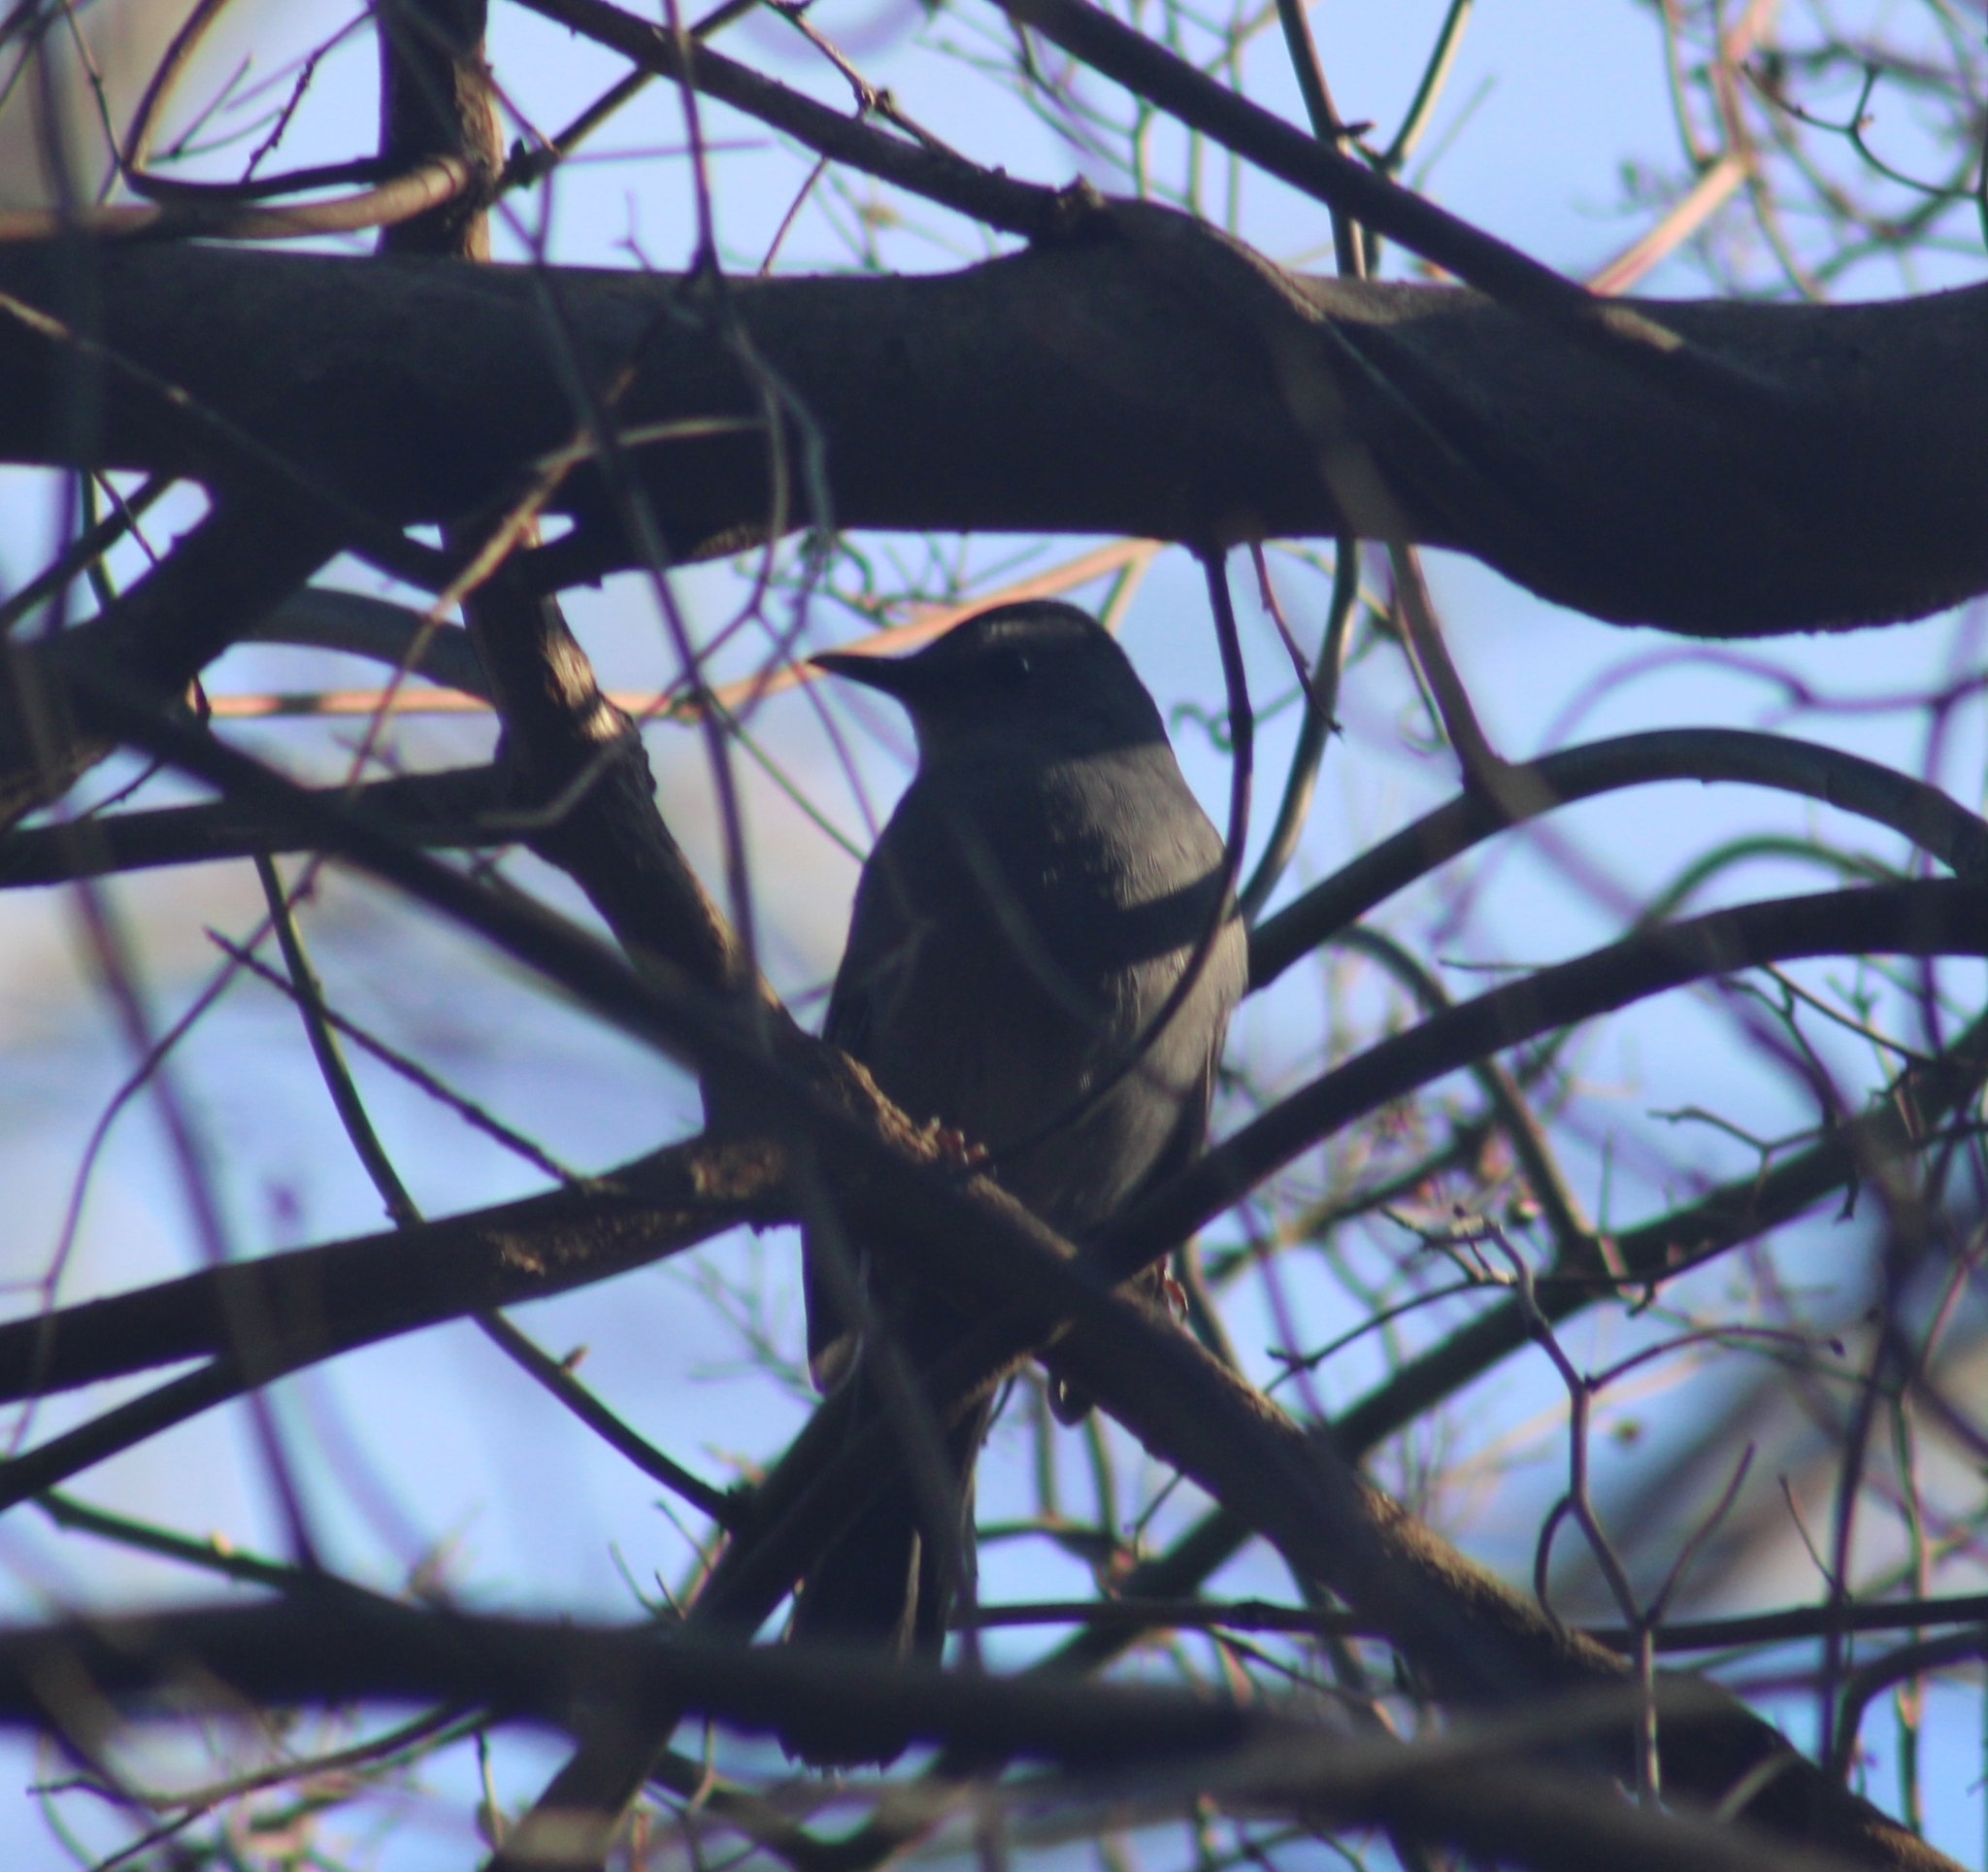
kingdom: Animalia
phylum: Chordata
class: Aves
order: Passeriformes
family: Mimidae
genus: Dumetella
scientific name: Dumetella carolinensis
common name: Gray catbird
